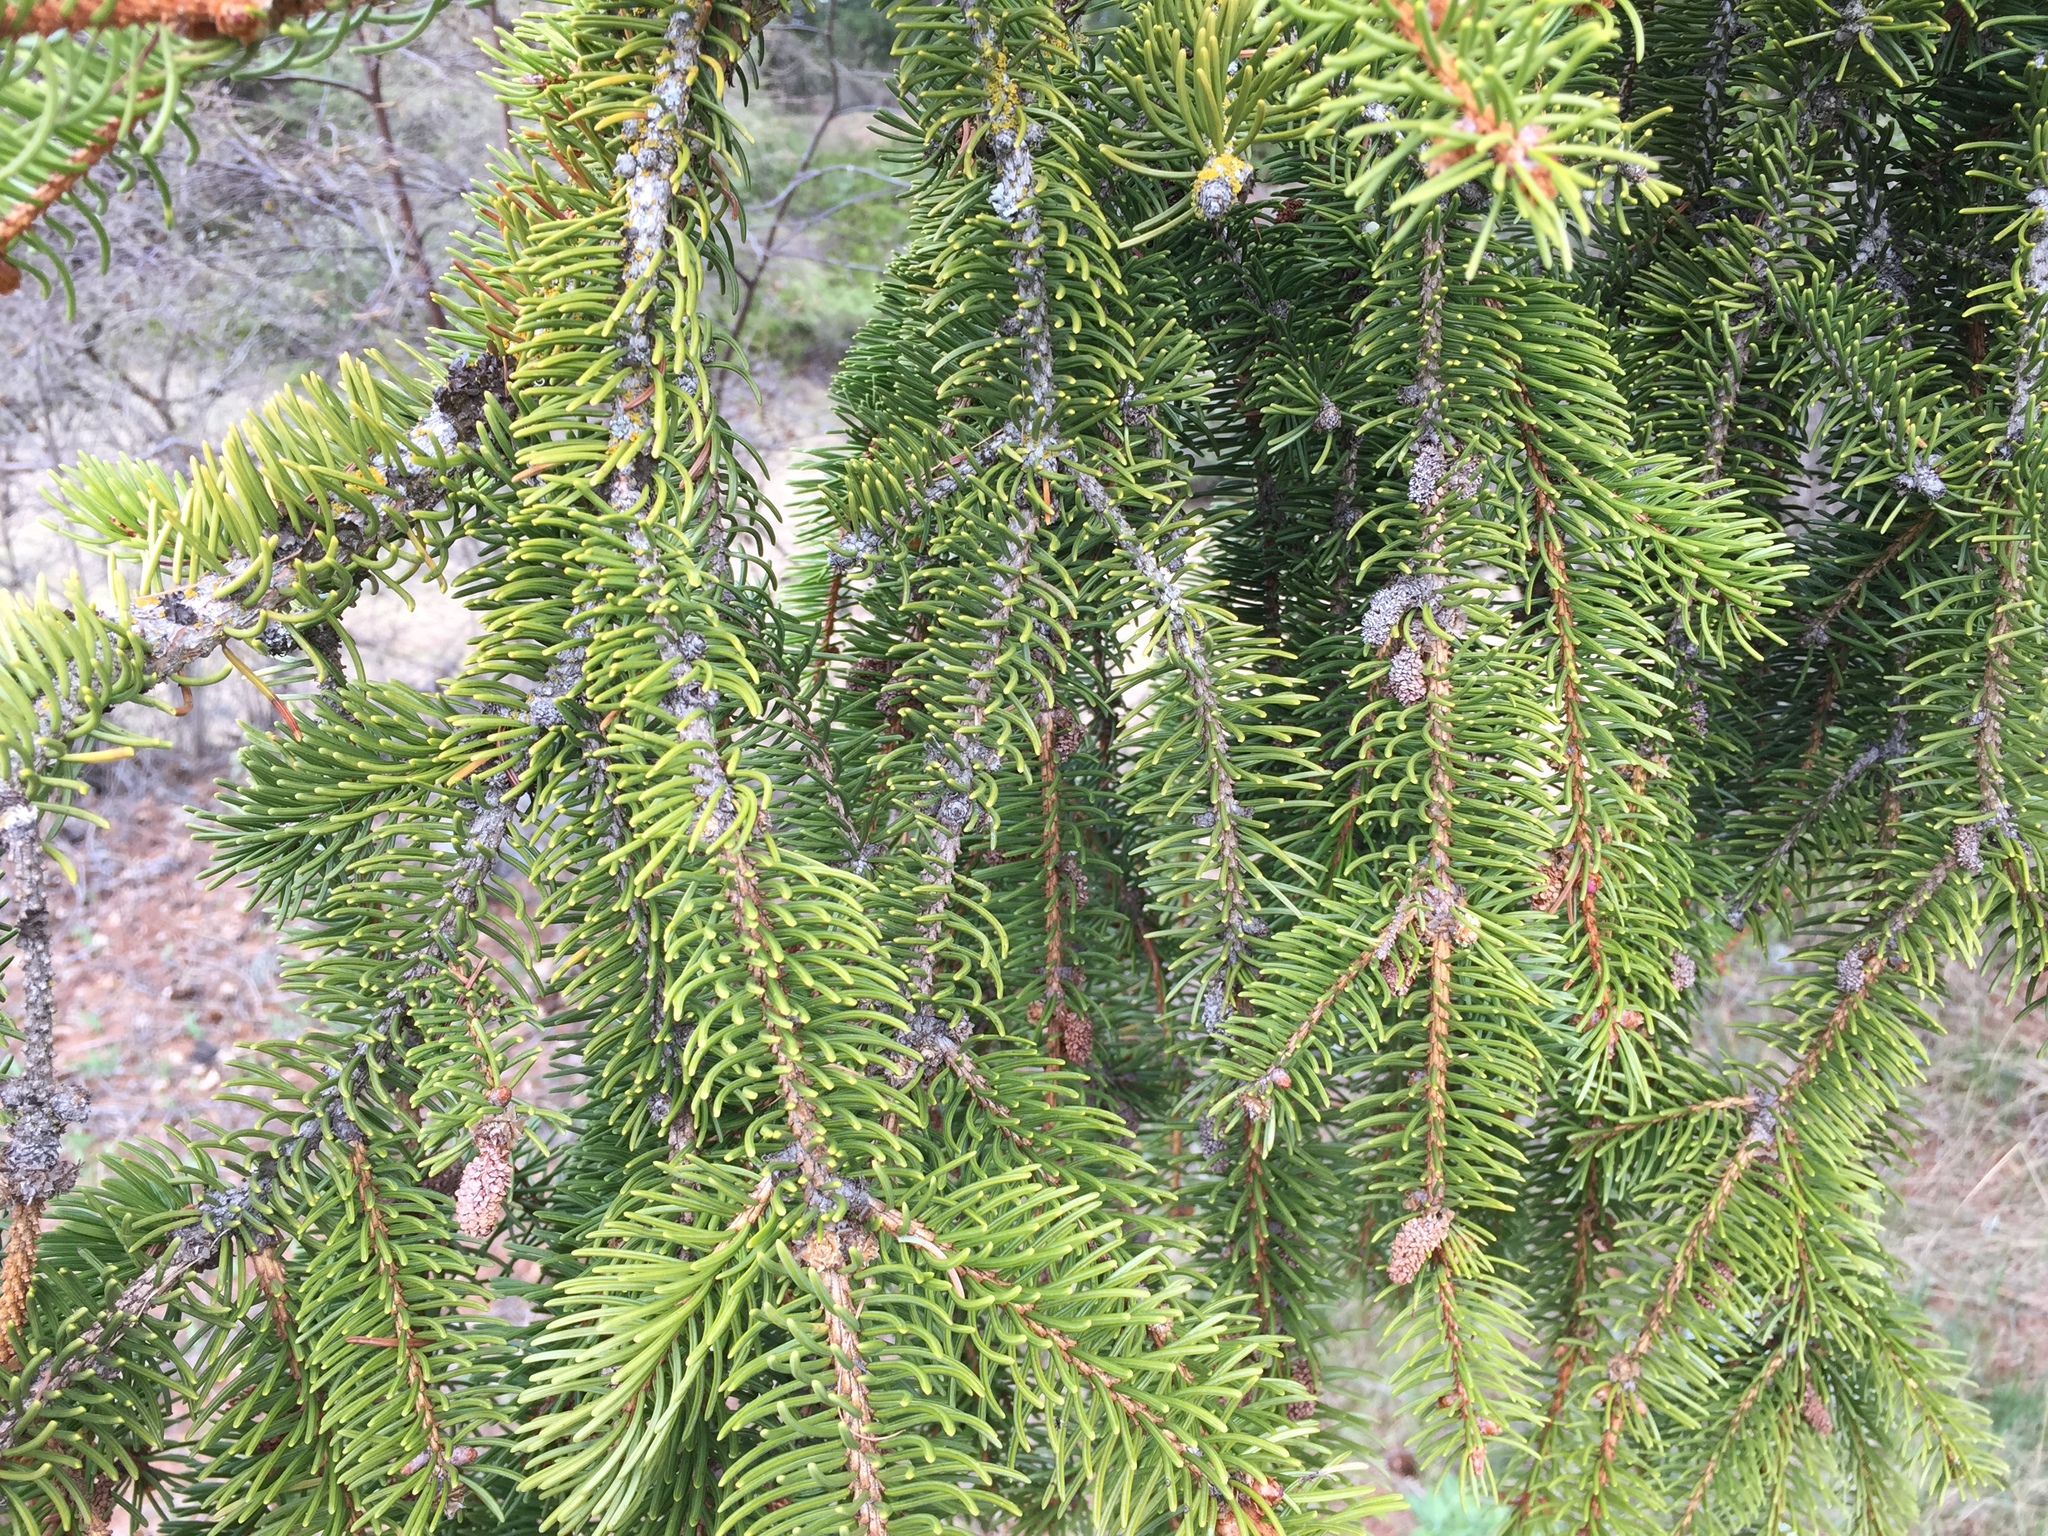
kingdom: Plantae
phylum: Tracheophyta
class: Pinopsida
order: Pinales
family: Pinaceae
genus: Picea
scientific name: Picea abies
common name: Norway spruce
